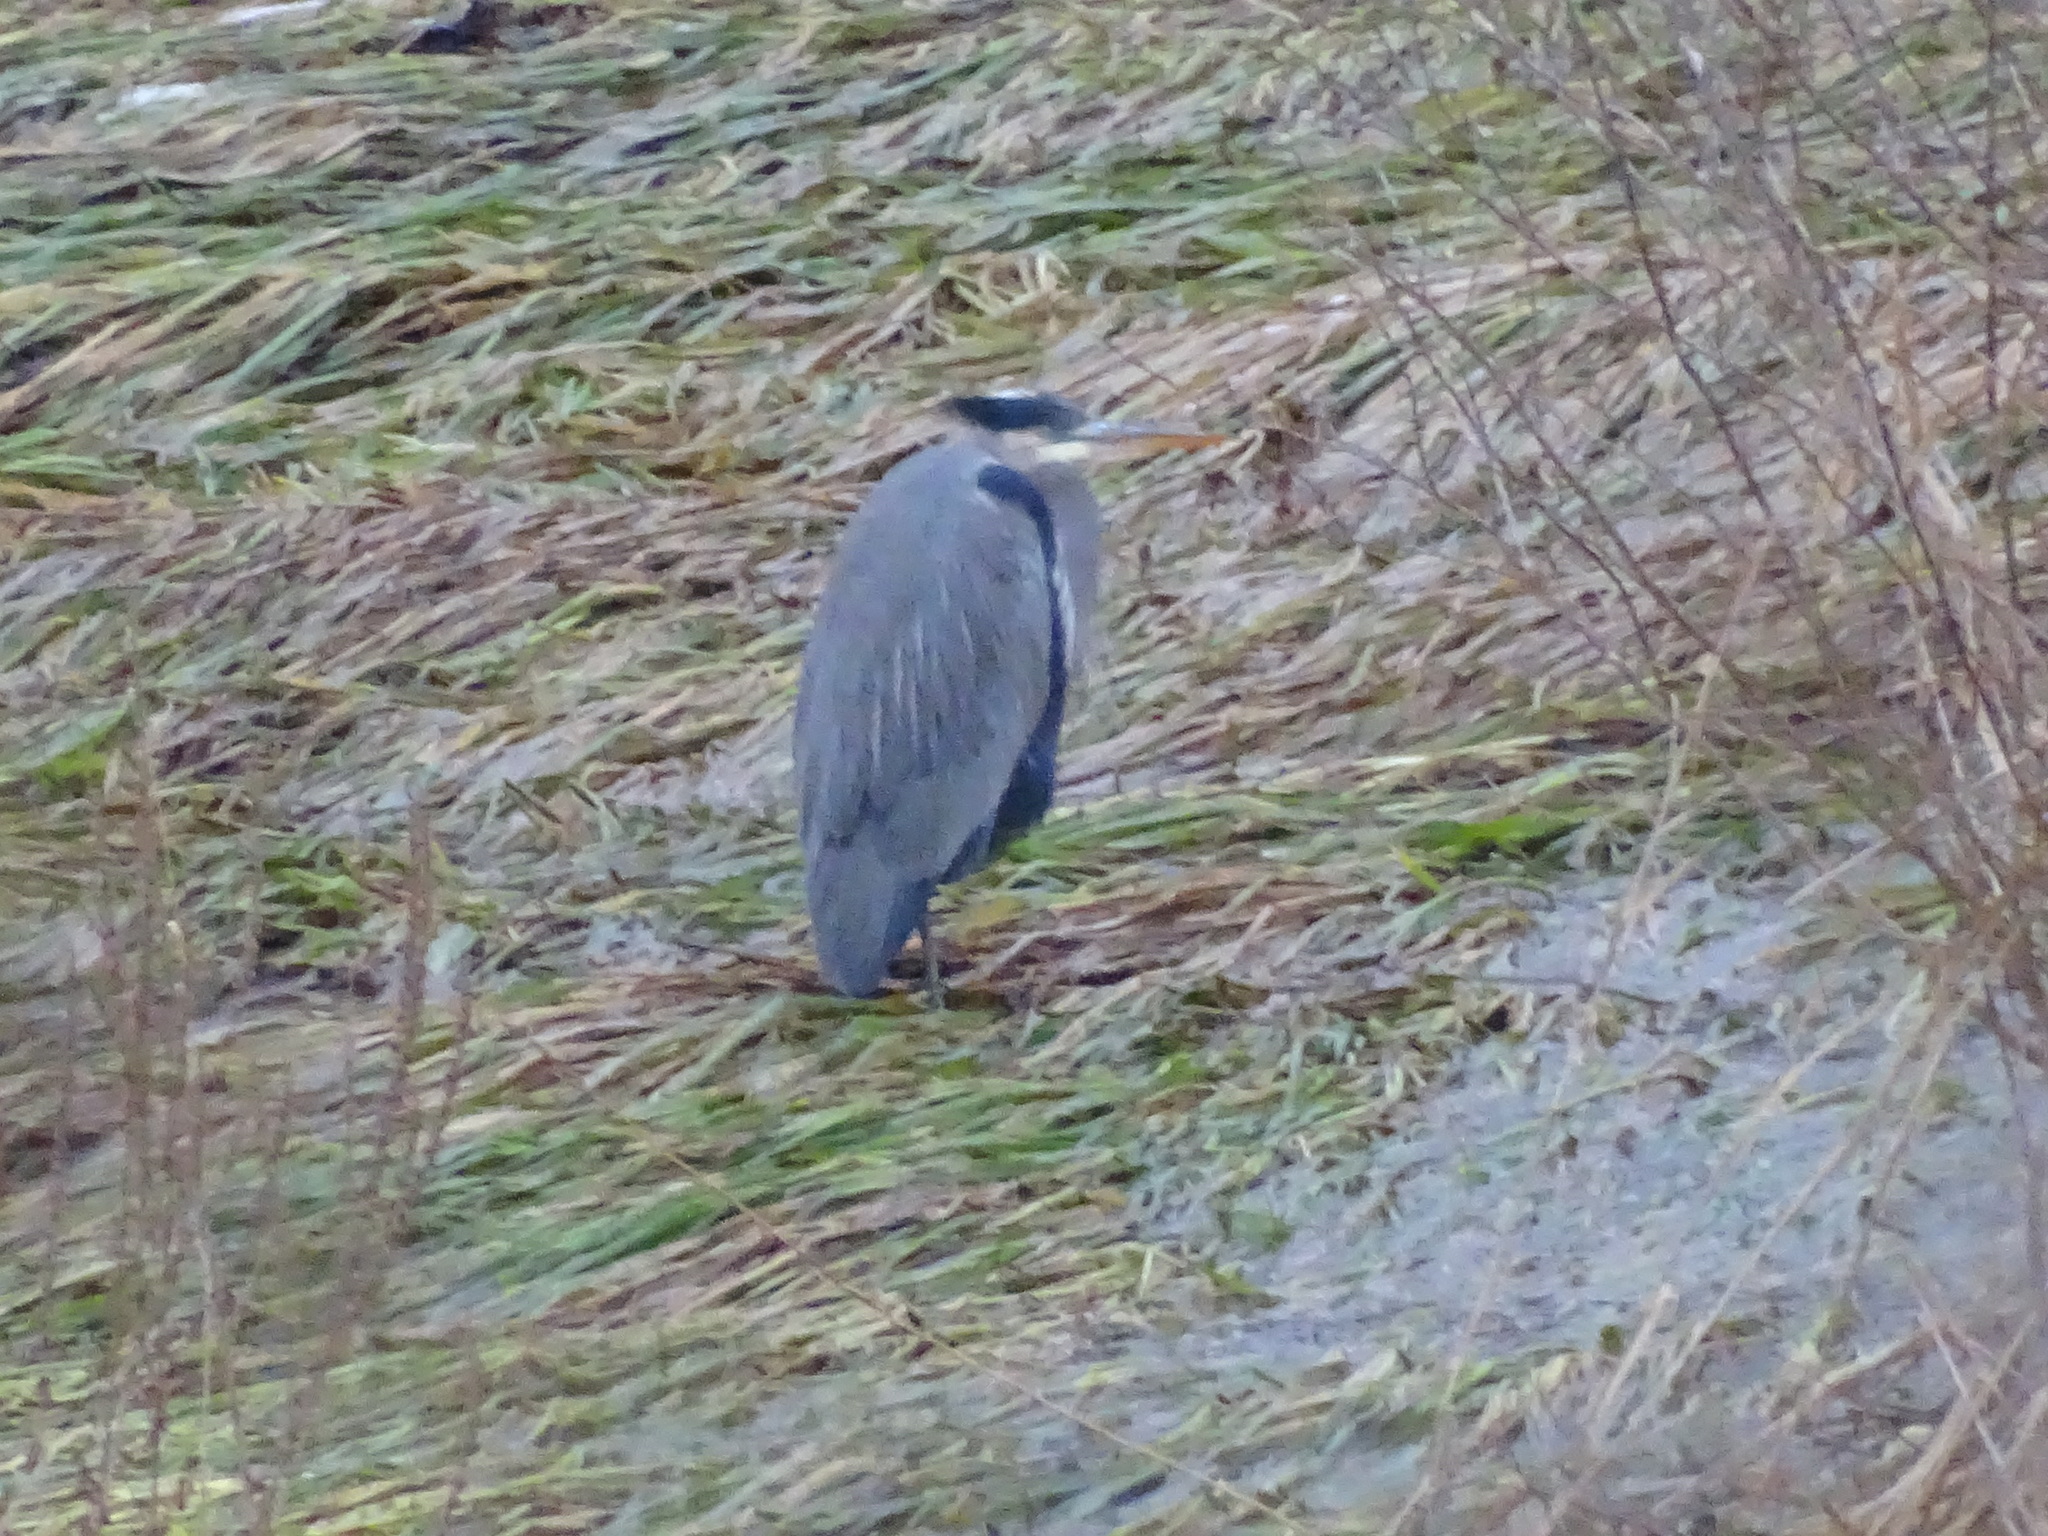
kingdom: Animalia
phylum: Chordata
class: Aves
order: Pelecaniformes
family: Ardeidae
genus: Ardea
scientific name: Ardea herodias
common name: Great blue heron
